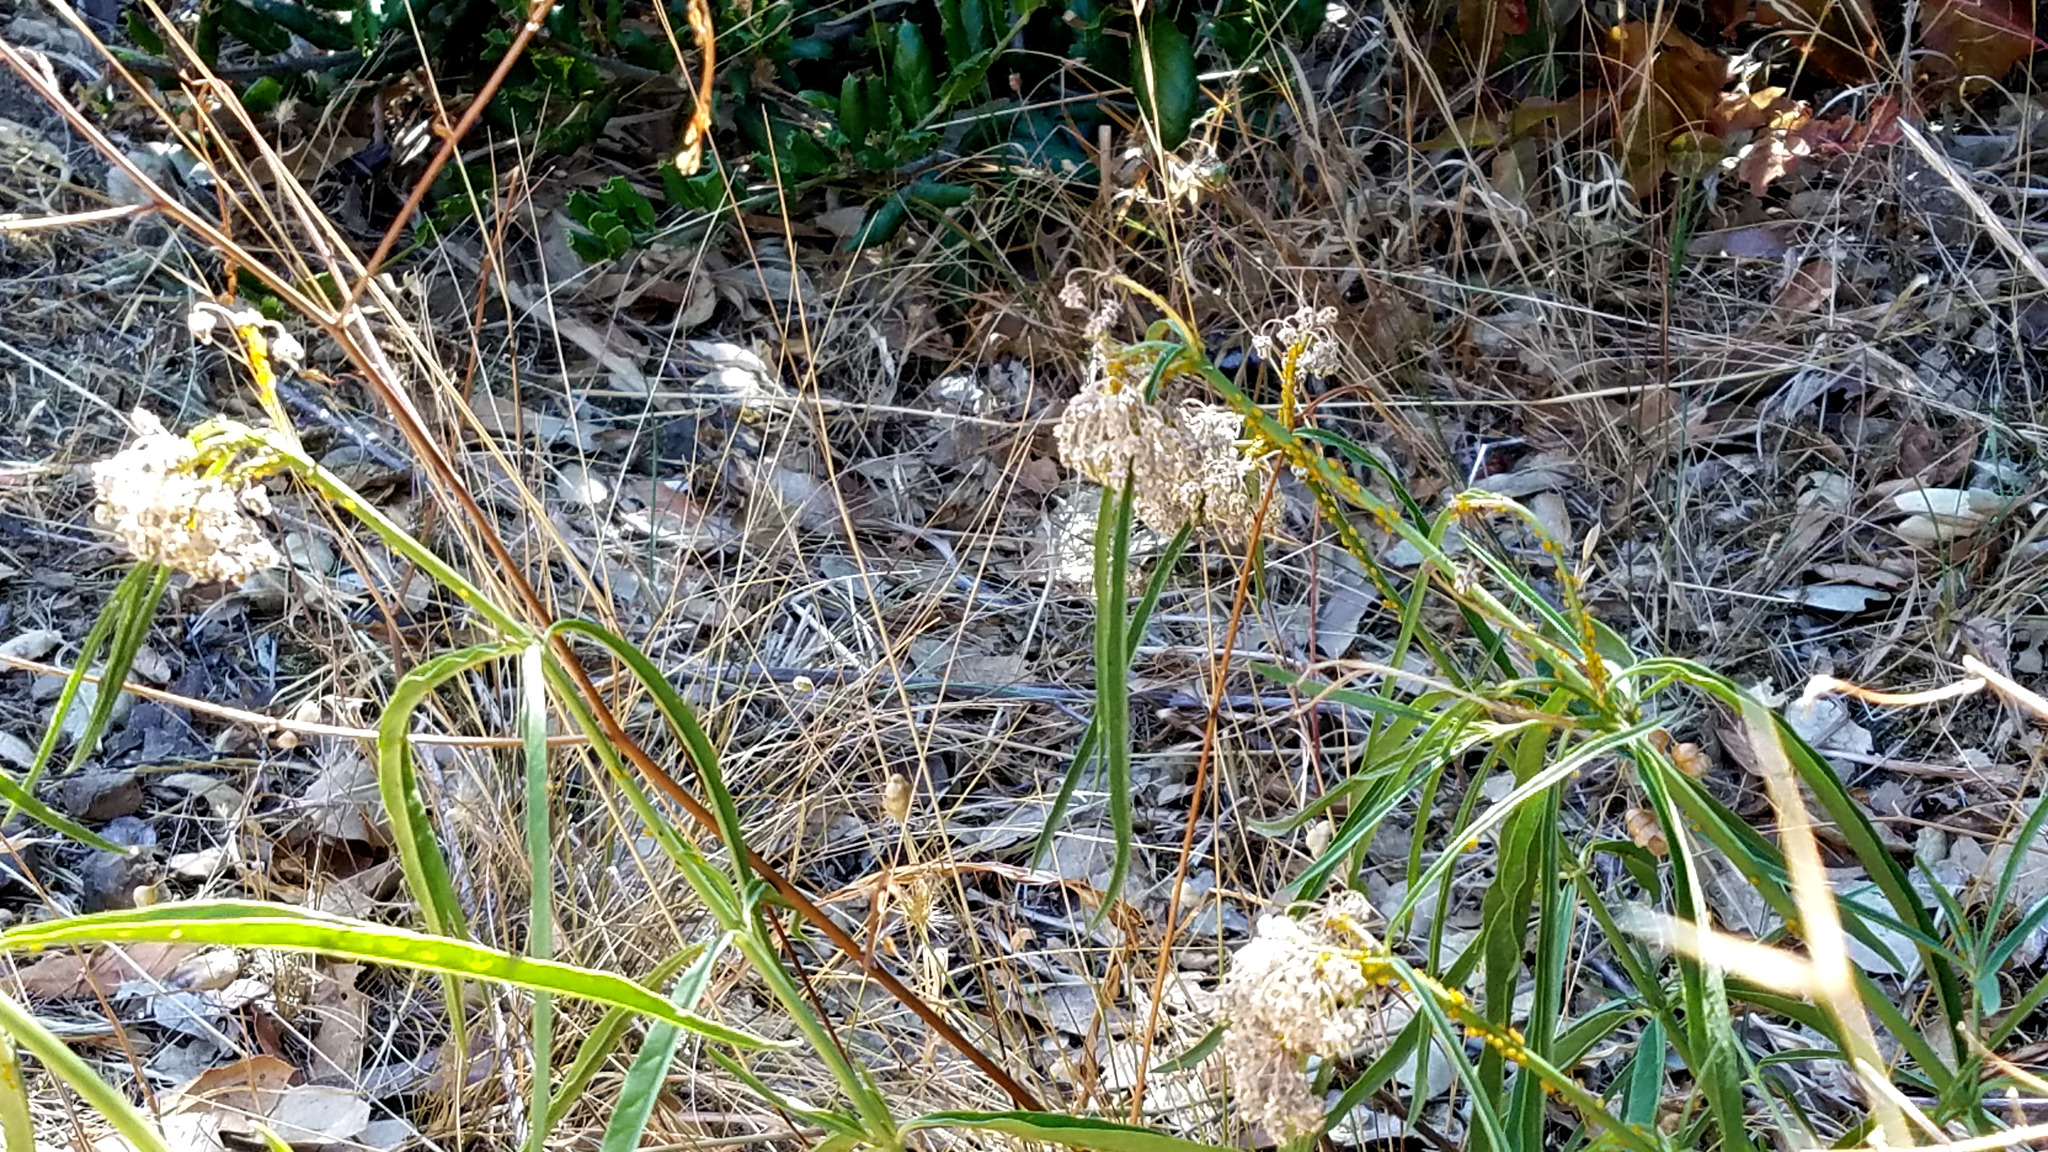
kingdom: Plantae
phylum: Tracheophyta
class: Magnoliopsida
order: Gentianales
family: Apocynaceae
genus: Asclepias
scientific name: Asclepias fascicularis
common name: Mexican milkweed
